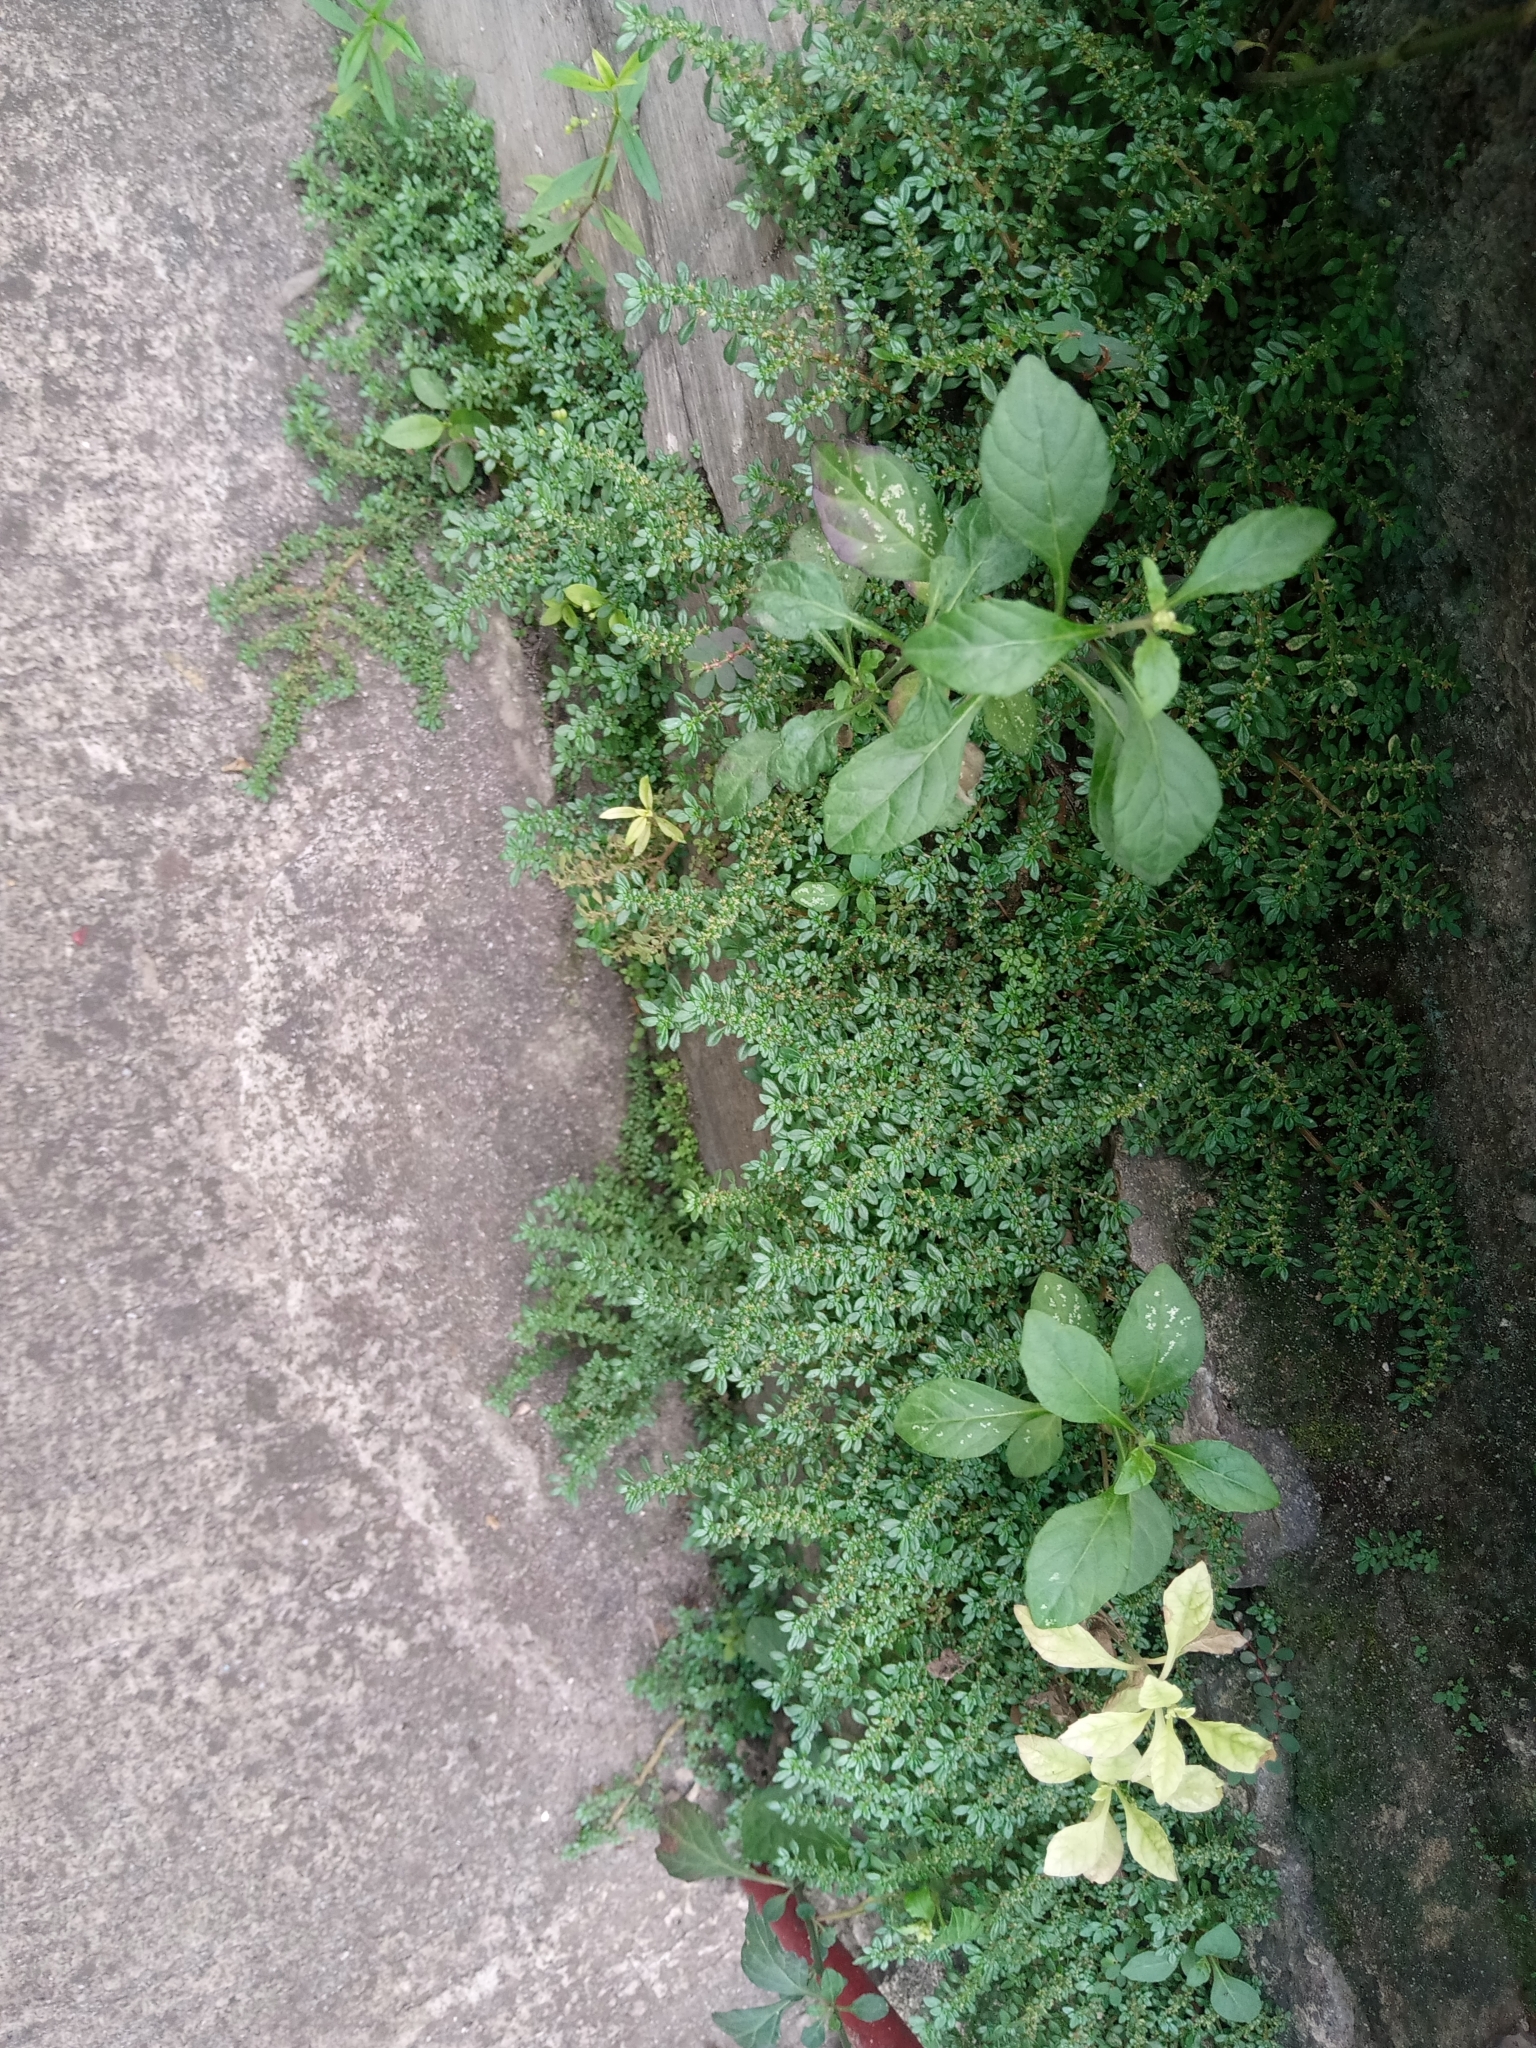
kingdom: Plantae
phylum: Tracheophyta
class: Magnoliopsida
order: Rosales
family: Urticaceae
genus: Pilea
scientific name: Pilea microphylla
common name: Artillery-plant
